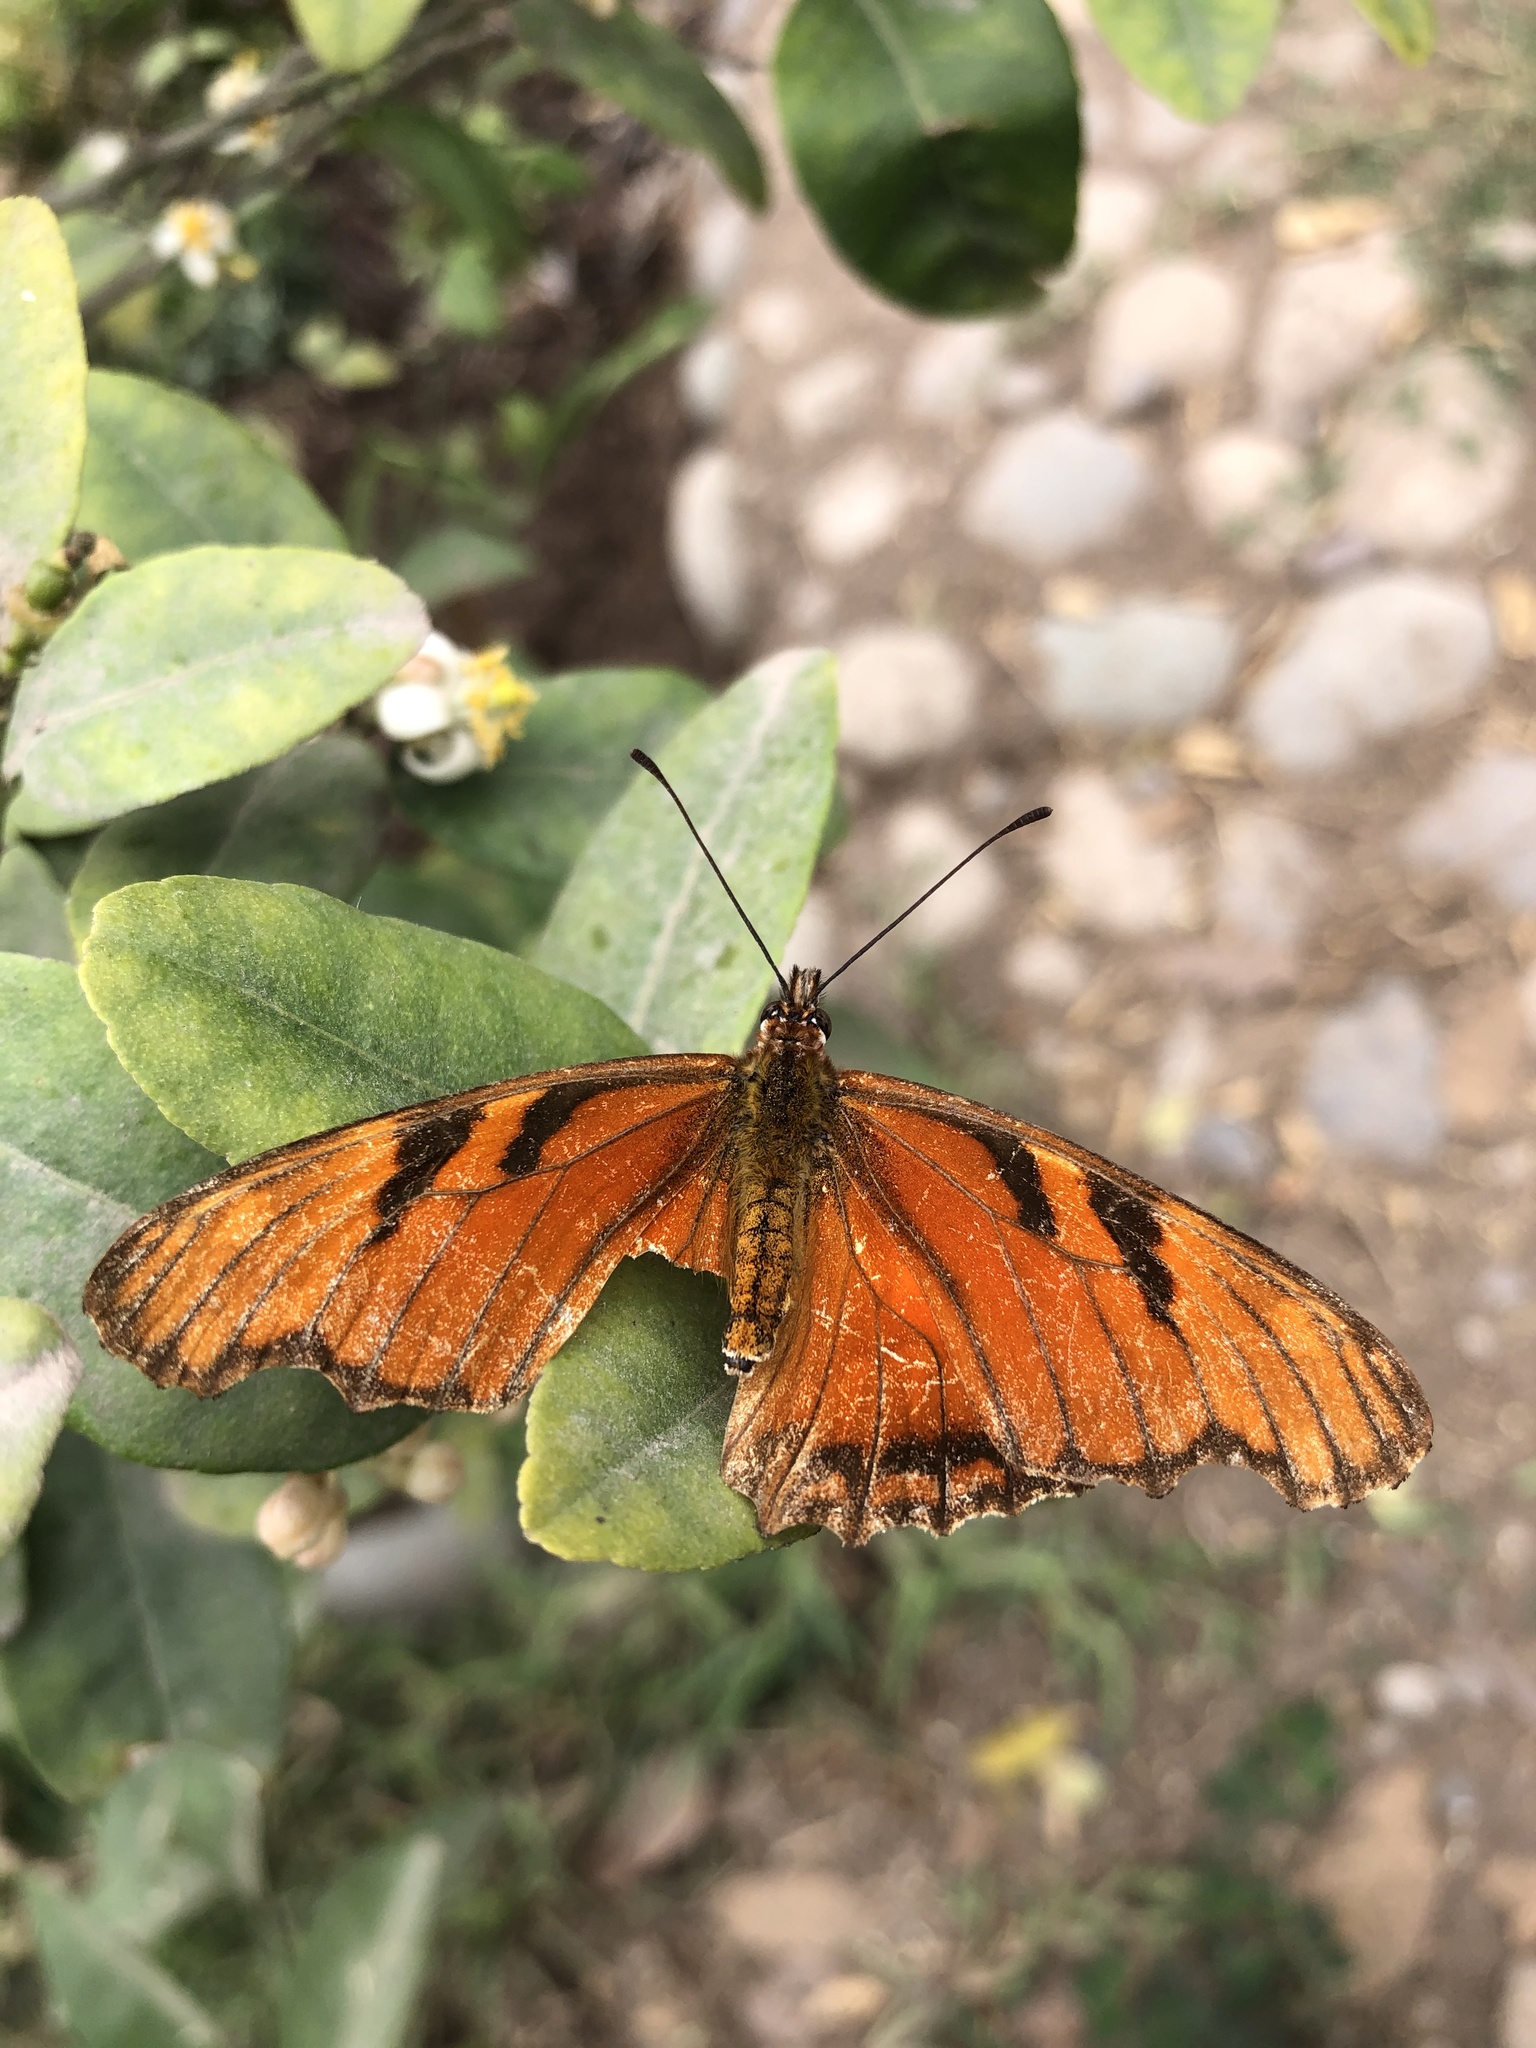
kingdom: Animalia
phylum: Arthropoda
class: Insecta
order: Lepidoptera
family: Nymphalidae
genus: Dione
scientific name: Dione juno
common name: Juno silverspot
